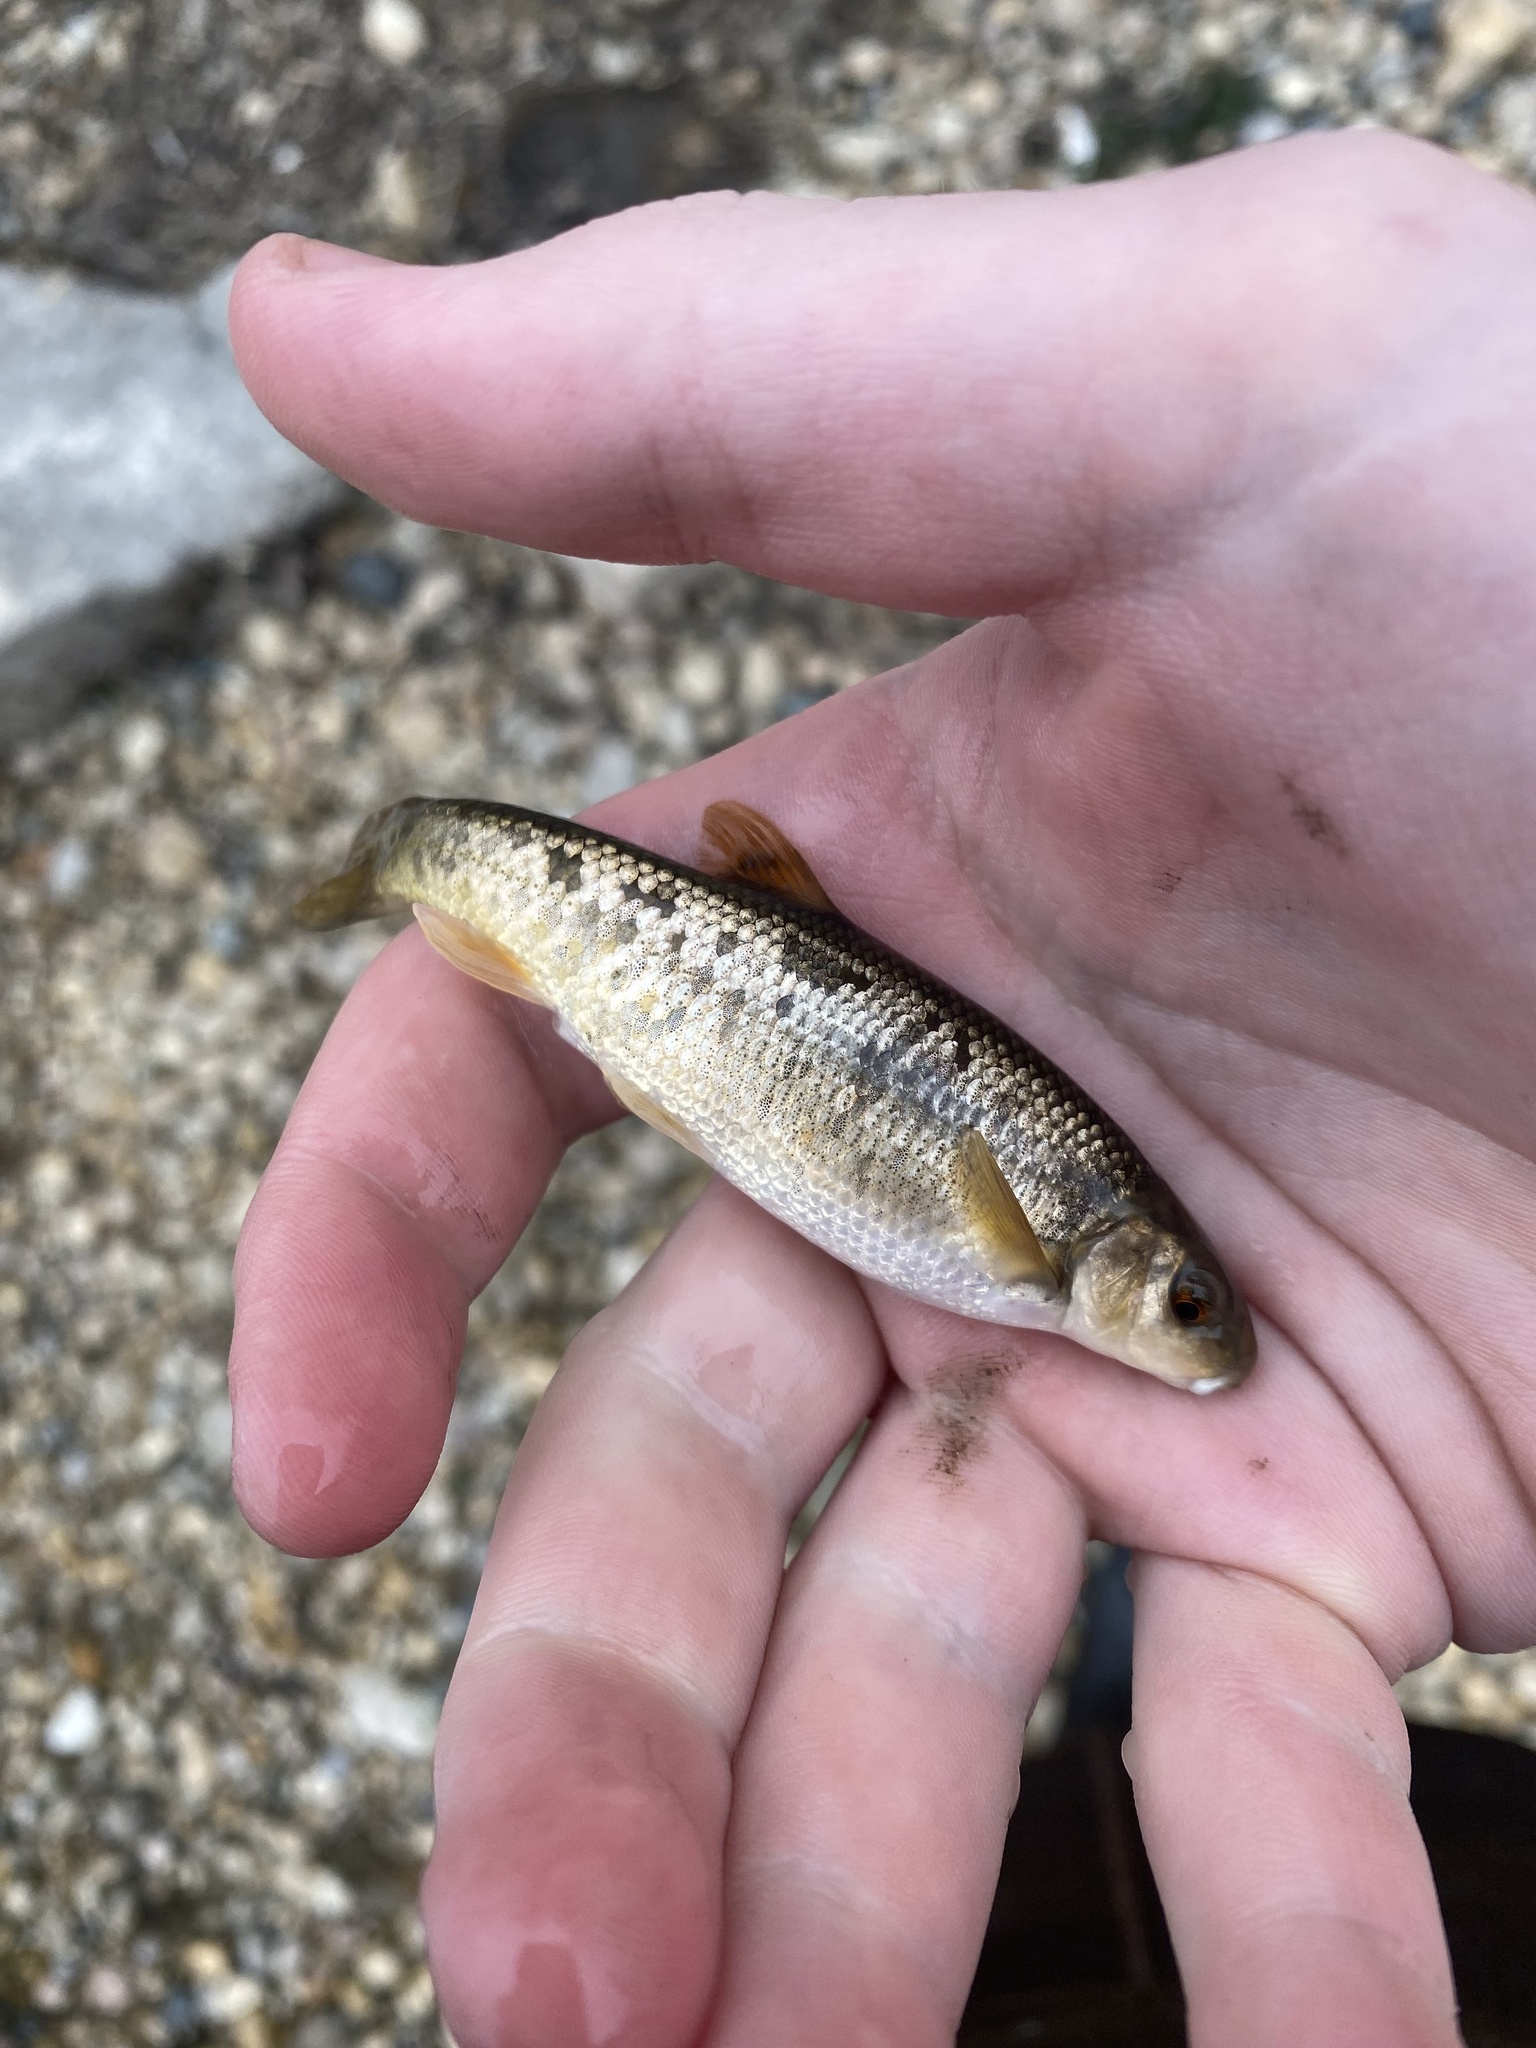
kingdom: Animalia
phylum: Chordata
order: Cypriniformes
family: Cyprinidae
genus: Campostoma
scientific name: Campostoma anomalum
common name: Central stoneroller
